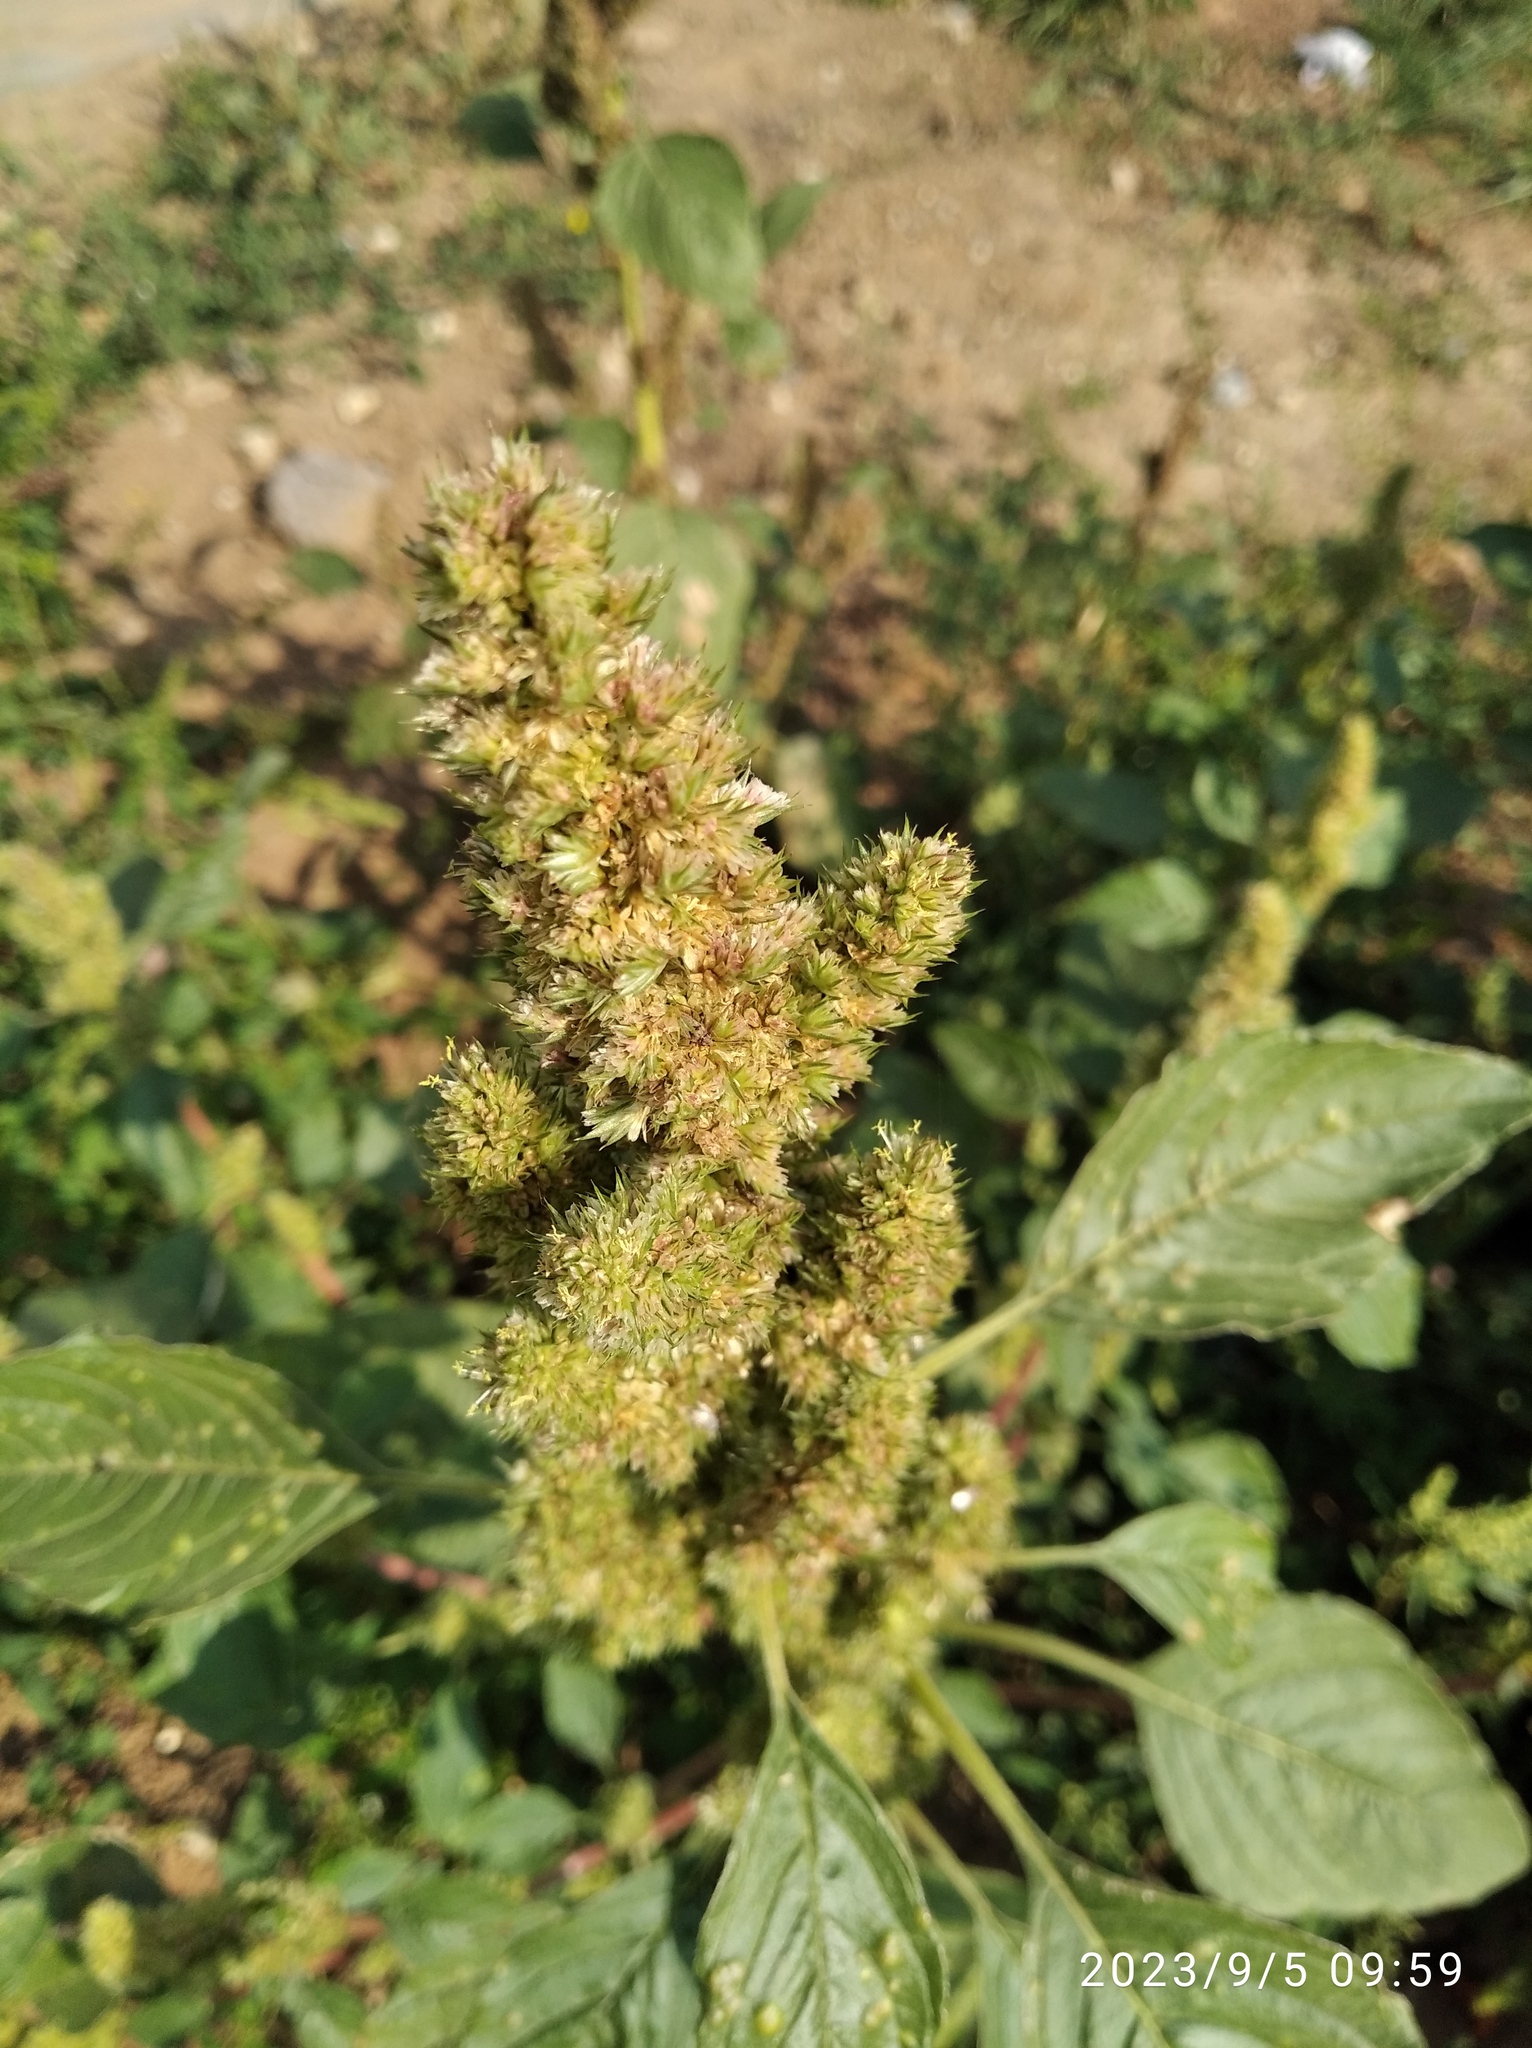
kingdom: Plantae
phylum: Tracheophyta
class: Magnoliopsida
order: Caryophyllales
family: Amaranthaceae
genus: Amaranthus
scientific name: Amaranthus retroflexus
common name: Redroot amaranth
